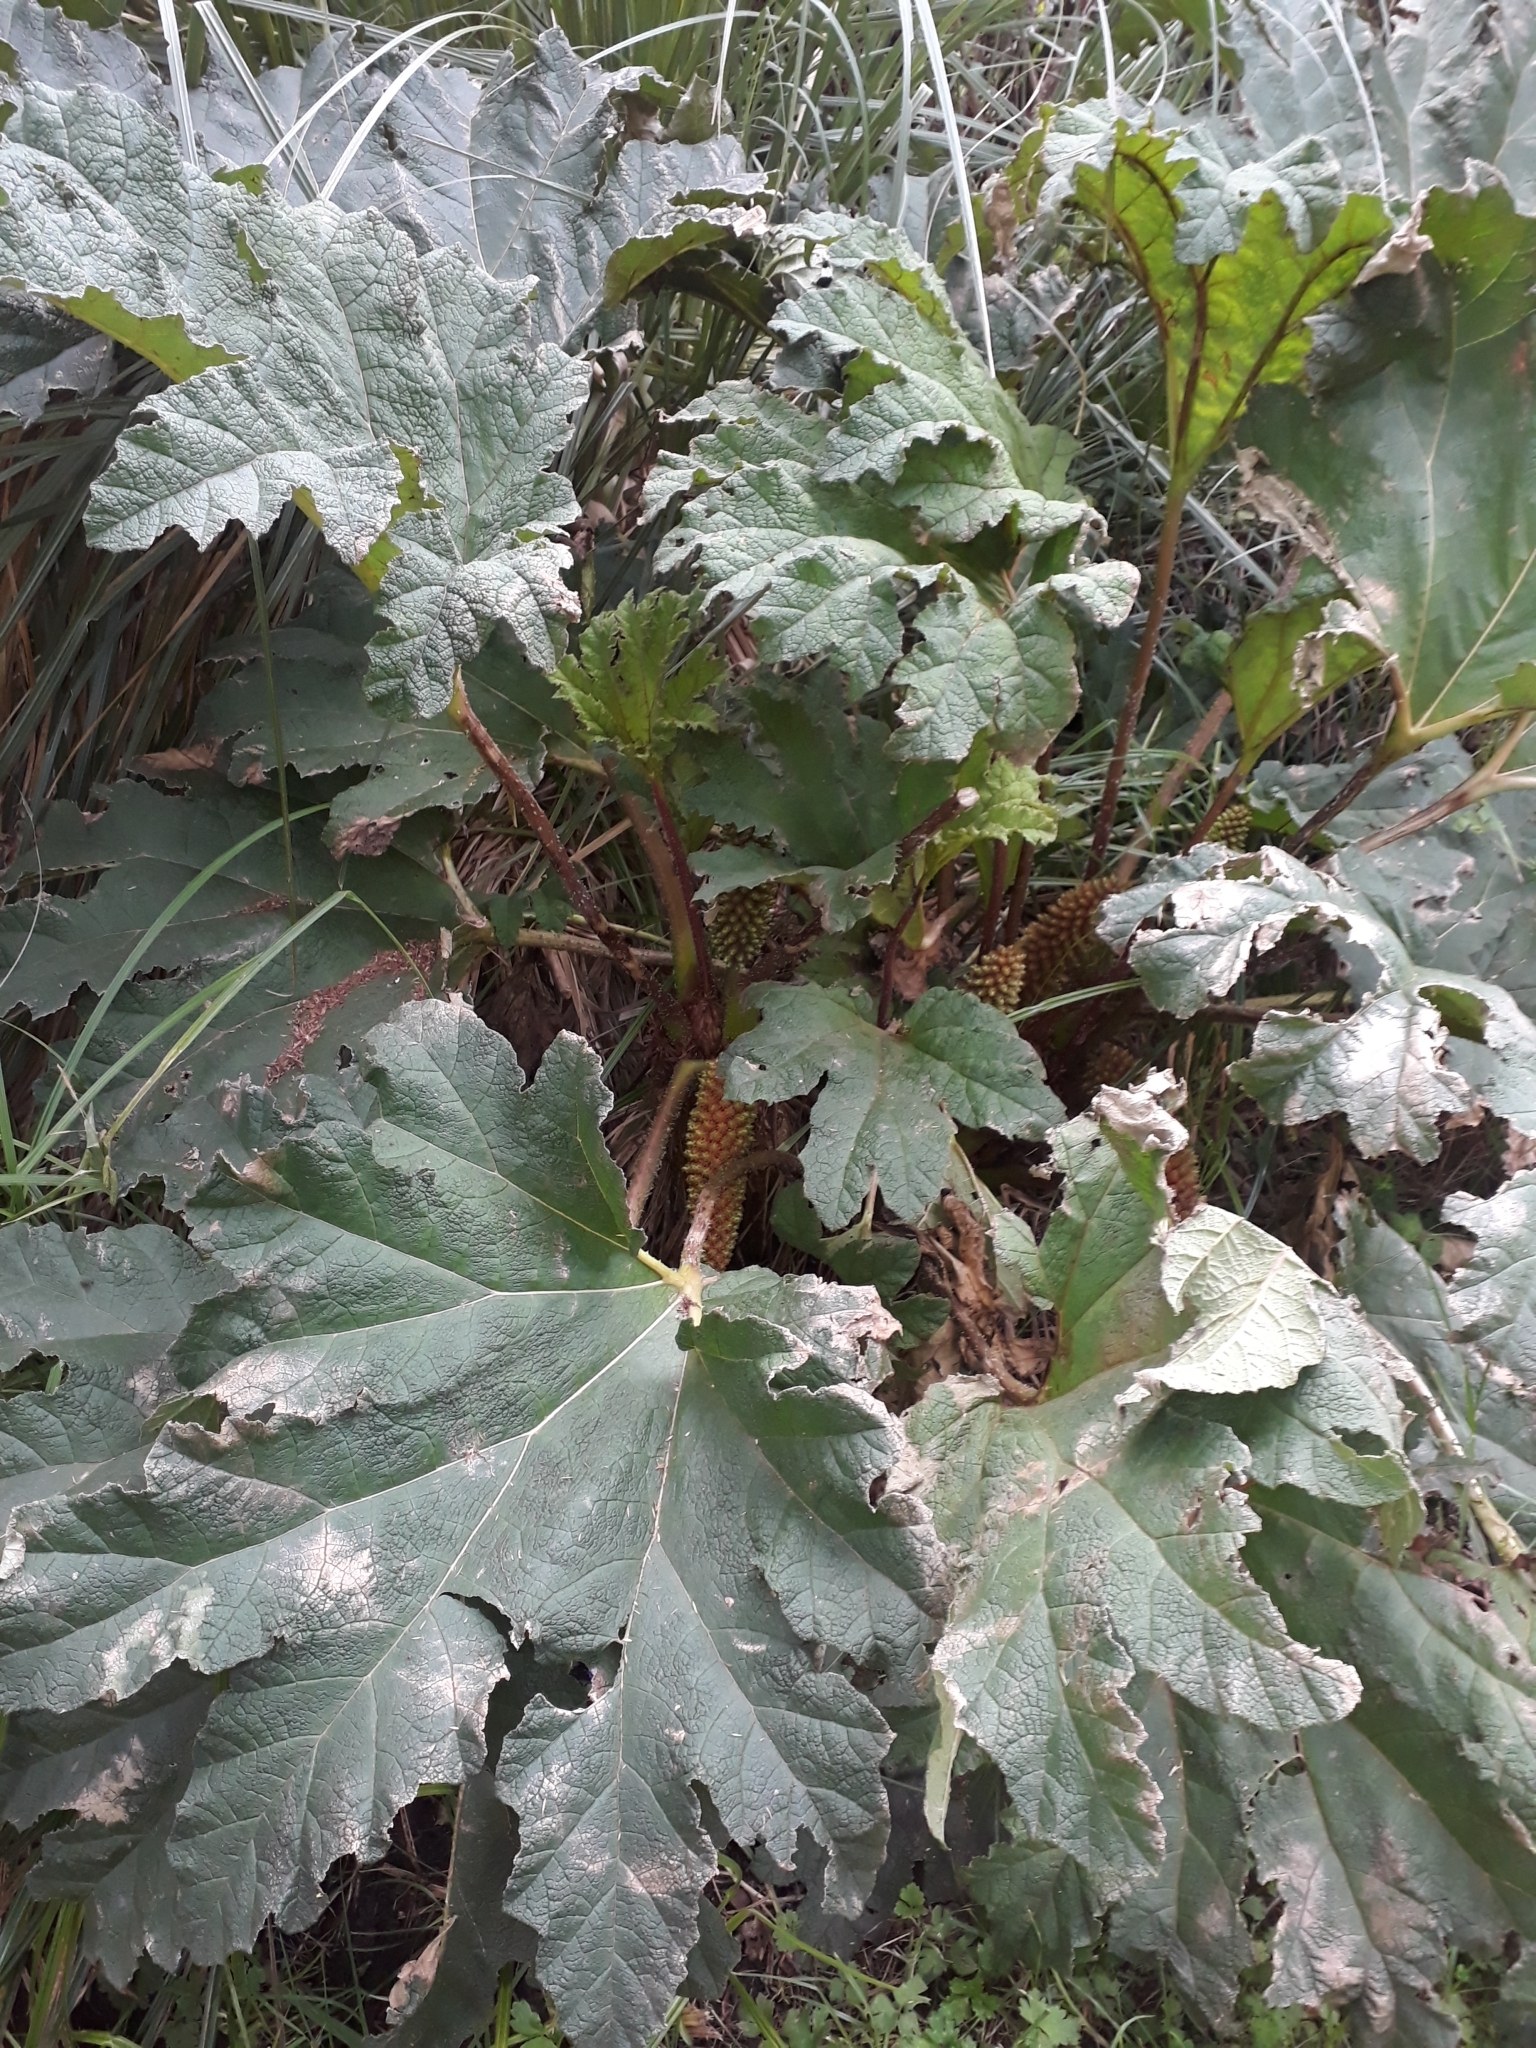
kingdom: Plantae
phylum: Tracheophyta
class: Magnoliopsida
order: Gunnerales
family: Gunneraceae
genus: Gunnera
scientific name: Gunnera tinctoria
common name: Giant-rhubarb
